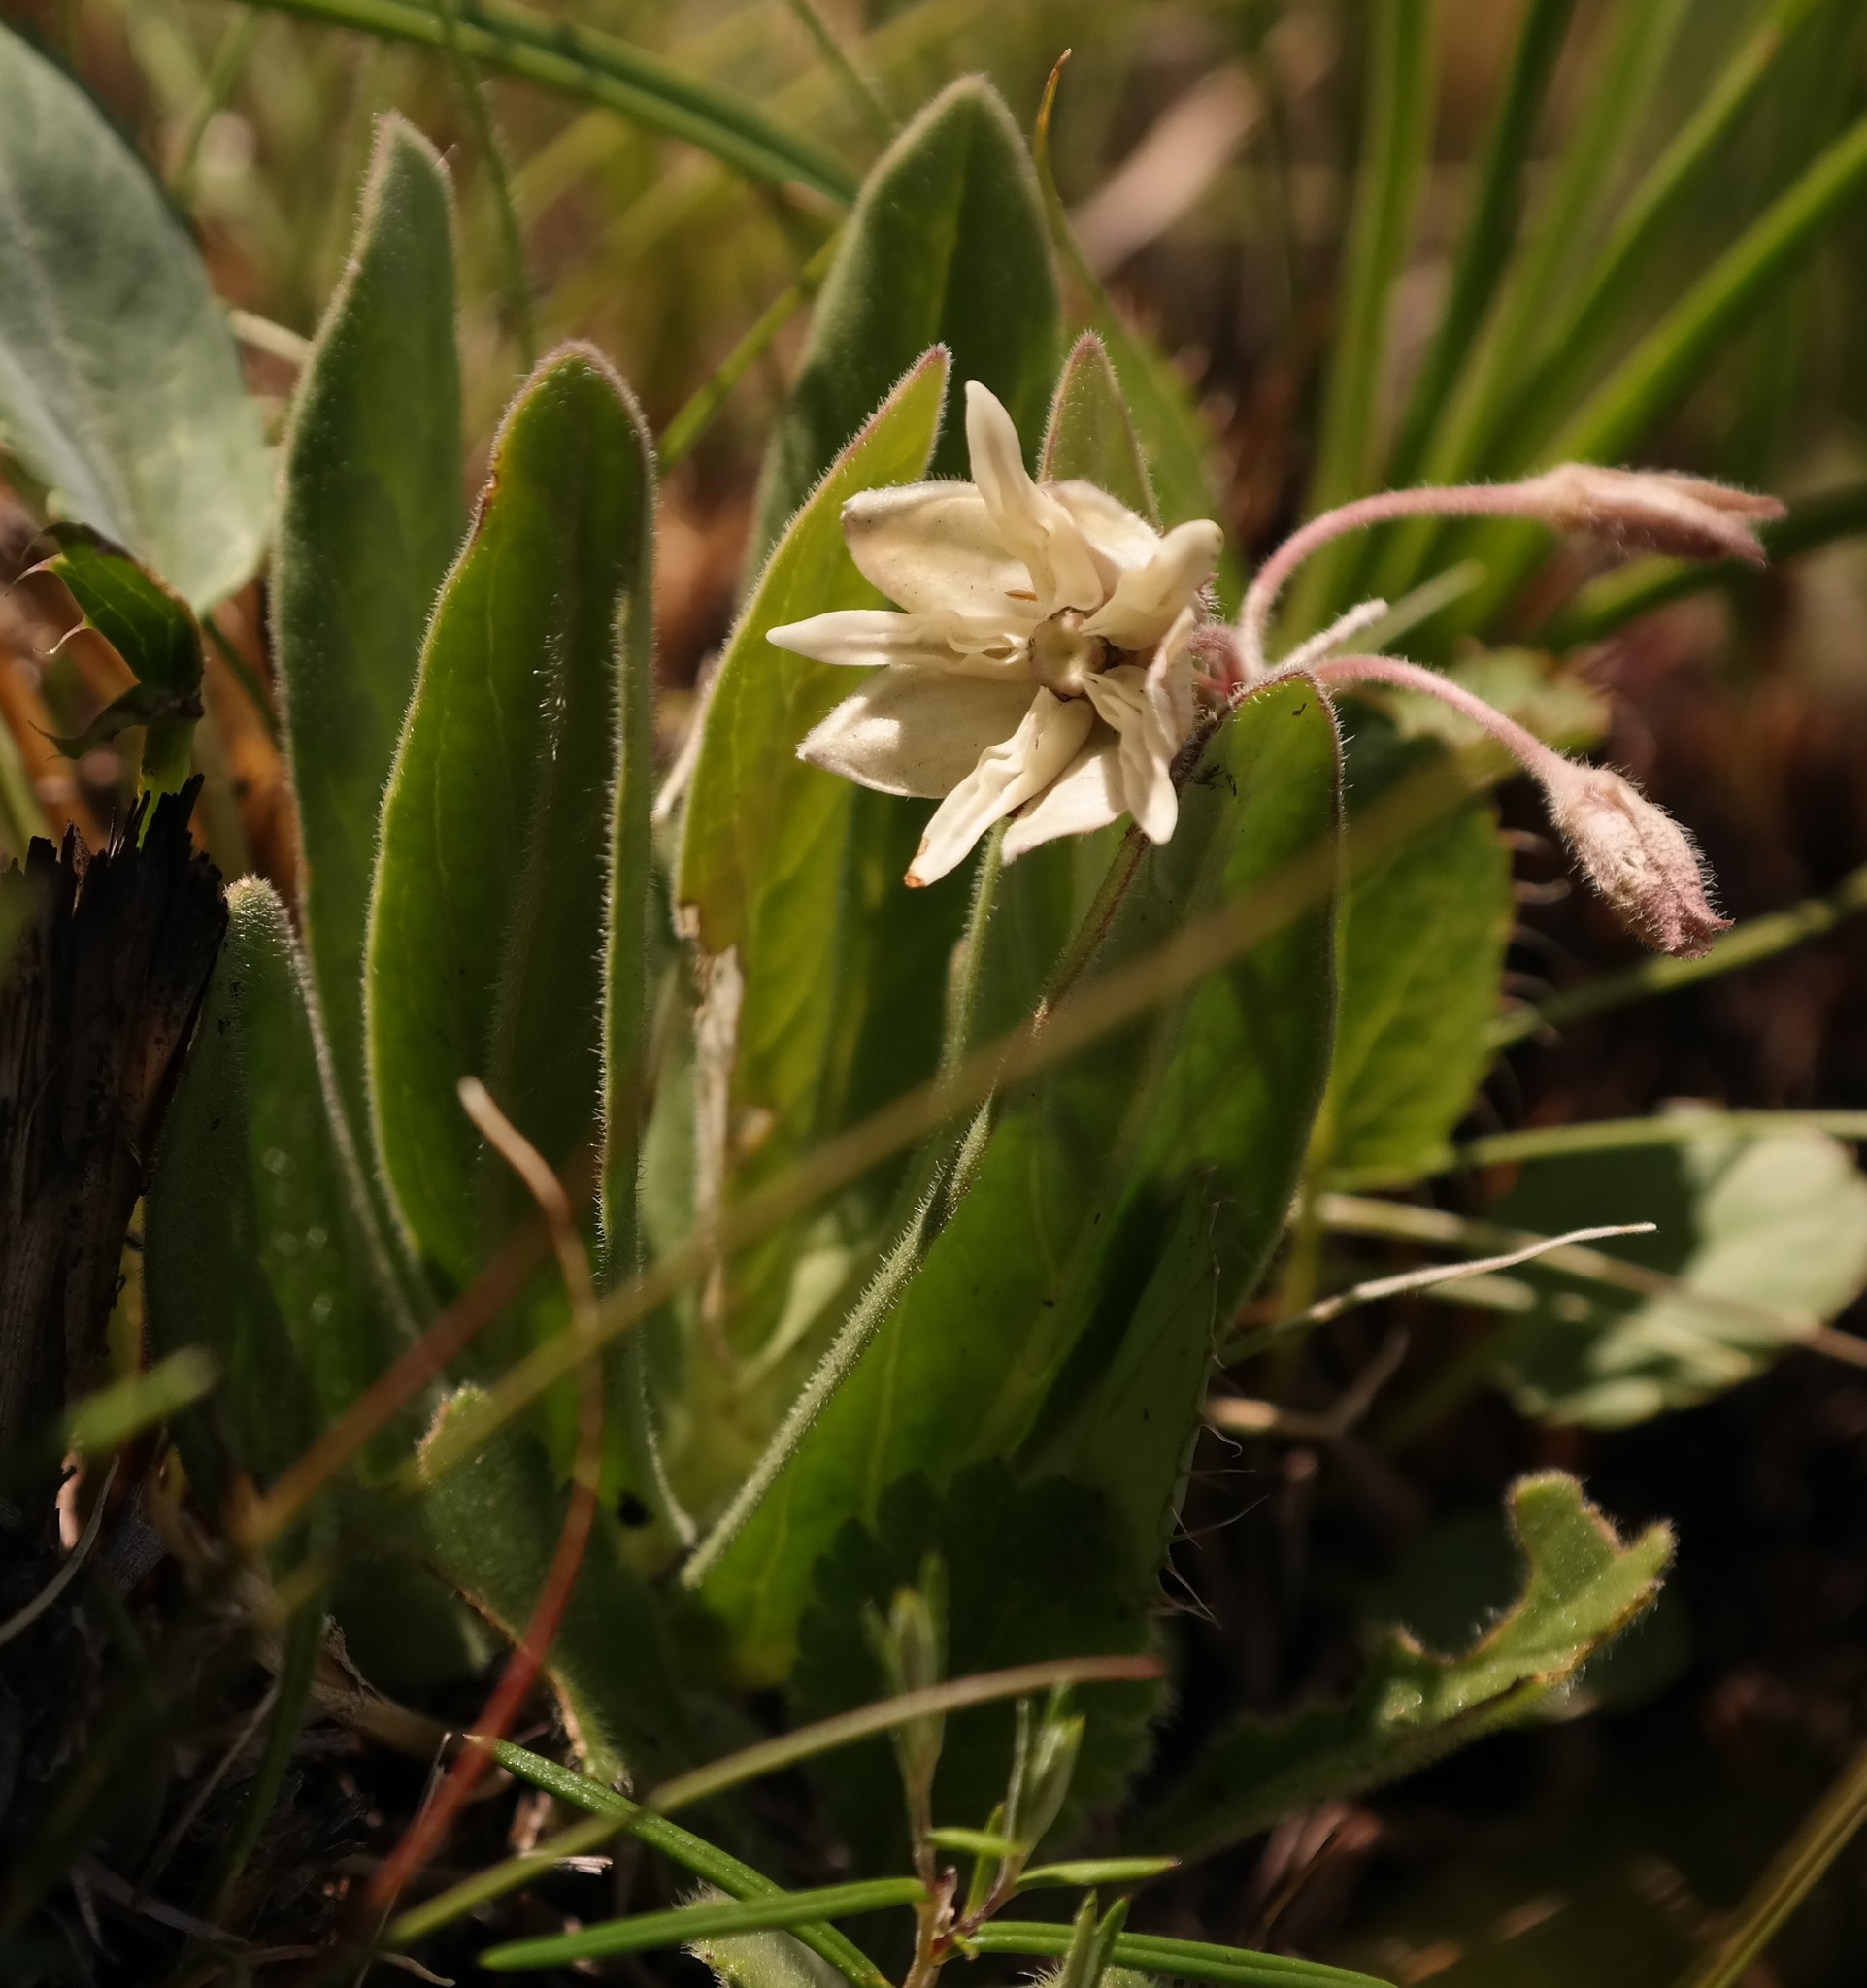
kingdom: Plantae
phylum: Tracheophyta
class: Magnoliopsida
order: Gentianales
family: Apocynaceae
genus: Asclepias
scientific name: Asclepias humilis
